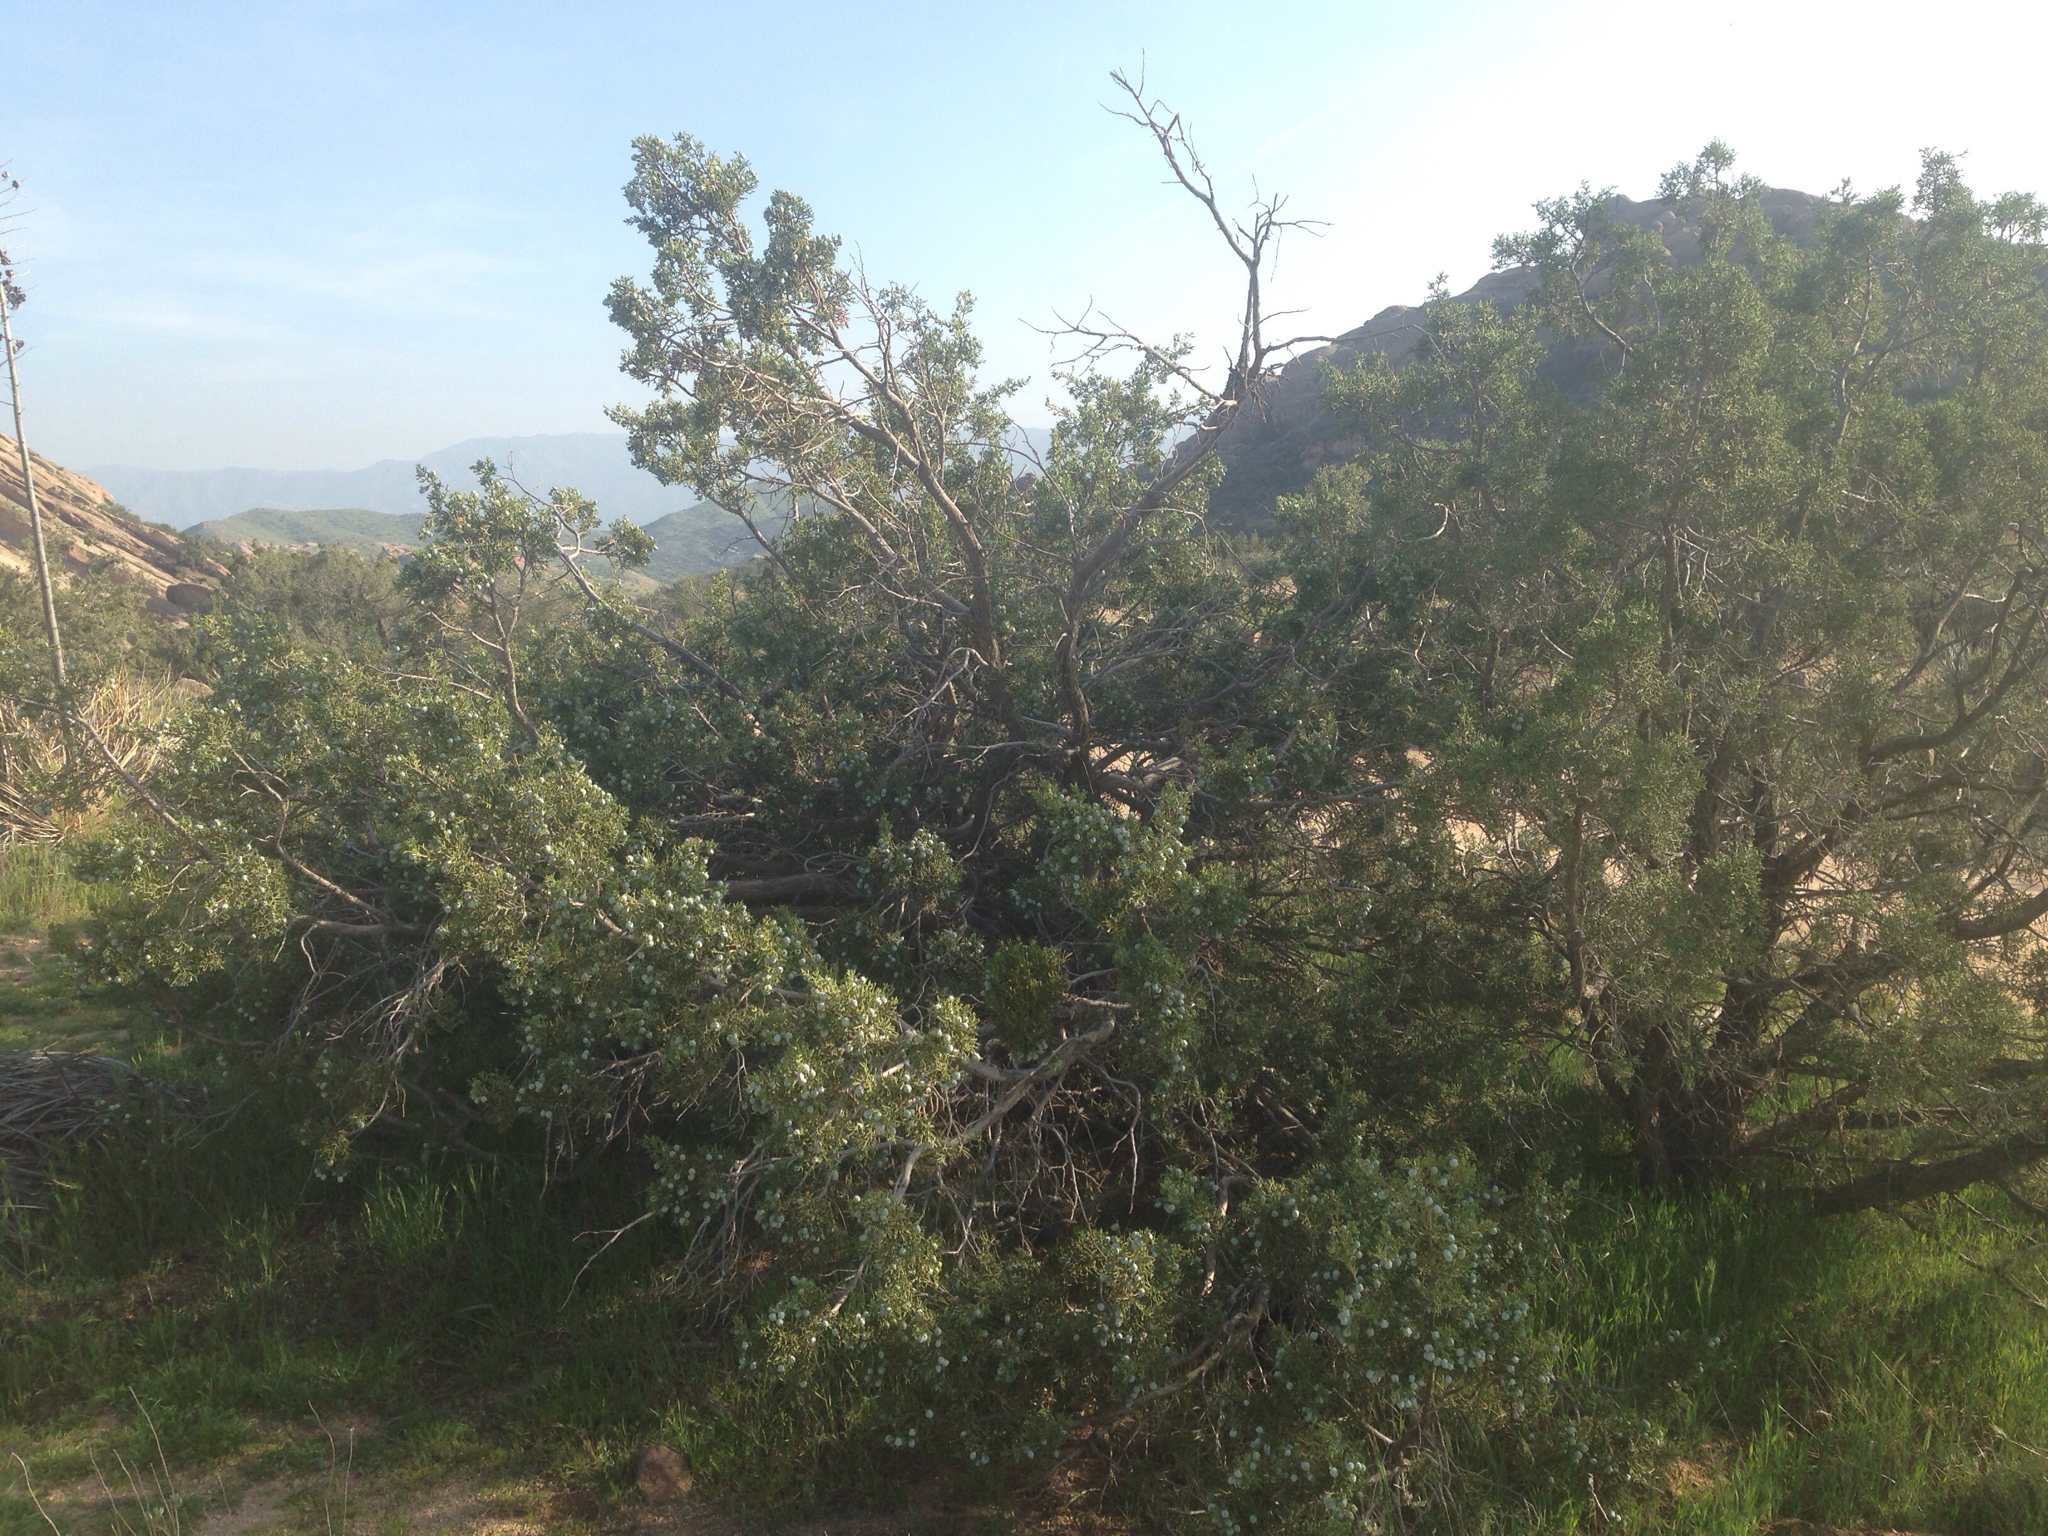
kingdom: Plantae
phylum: Tracheophyta
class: Pinopsida
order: Pinales
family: Cupressaceae
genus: Juniperus
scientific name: Juniperus californica
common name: California juniper
